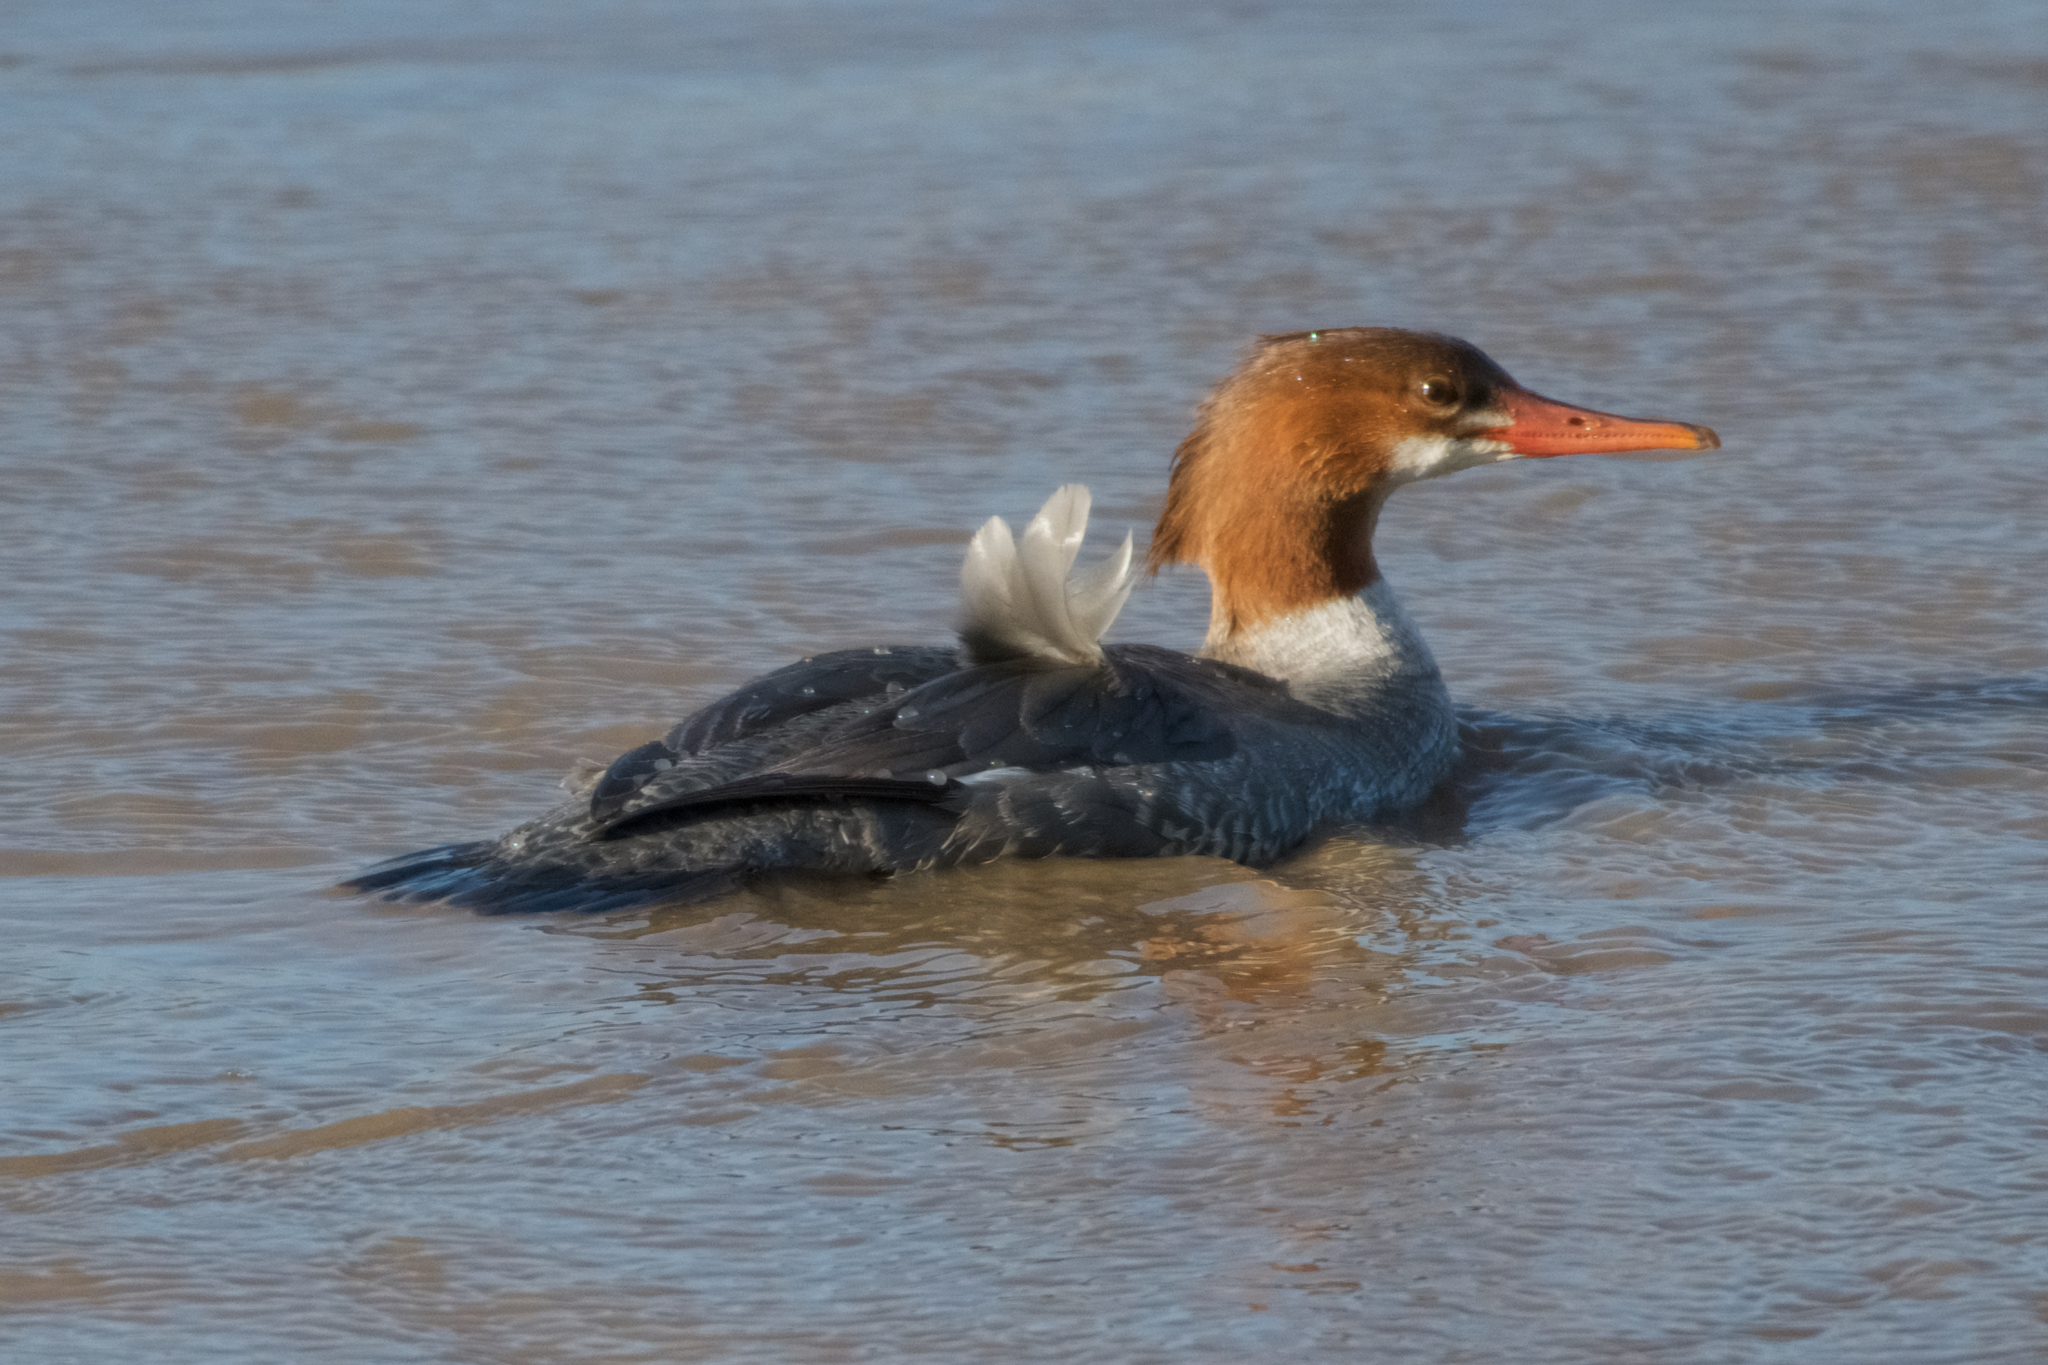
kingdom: Animalia
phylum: Chordata
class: Aves
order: Anseriformes
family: Anatidae
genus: Mergus
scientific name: Mergus merganser
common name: Common merganser
